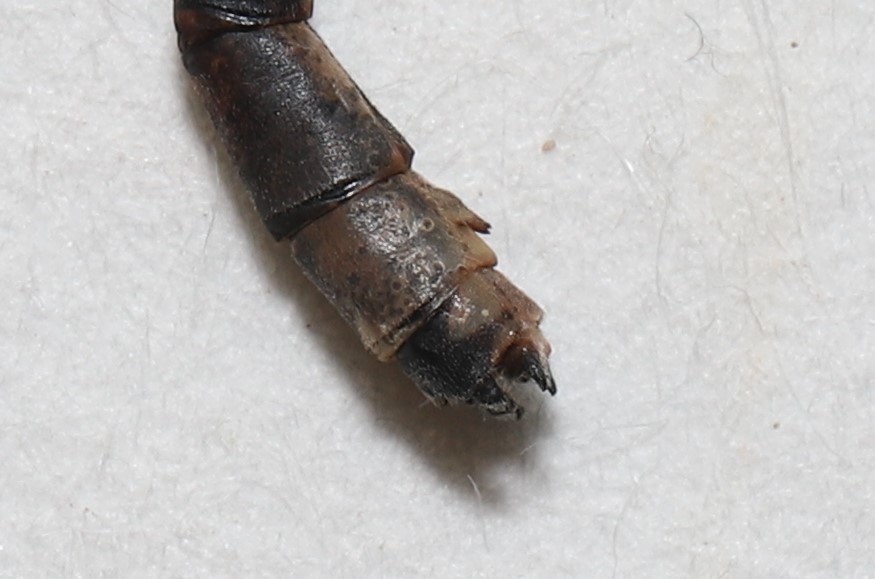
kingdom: Animalia
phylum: Arthropoda
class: Insecta
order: Odonata
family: Coenagrionidae
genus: Enallagma
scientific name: Enallagma boreale
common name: Boreal bluet
